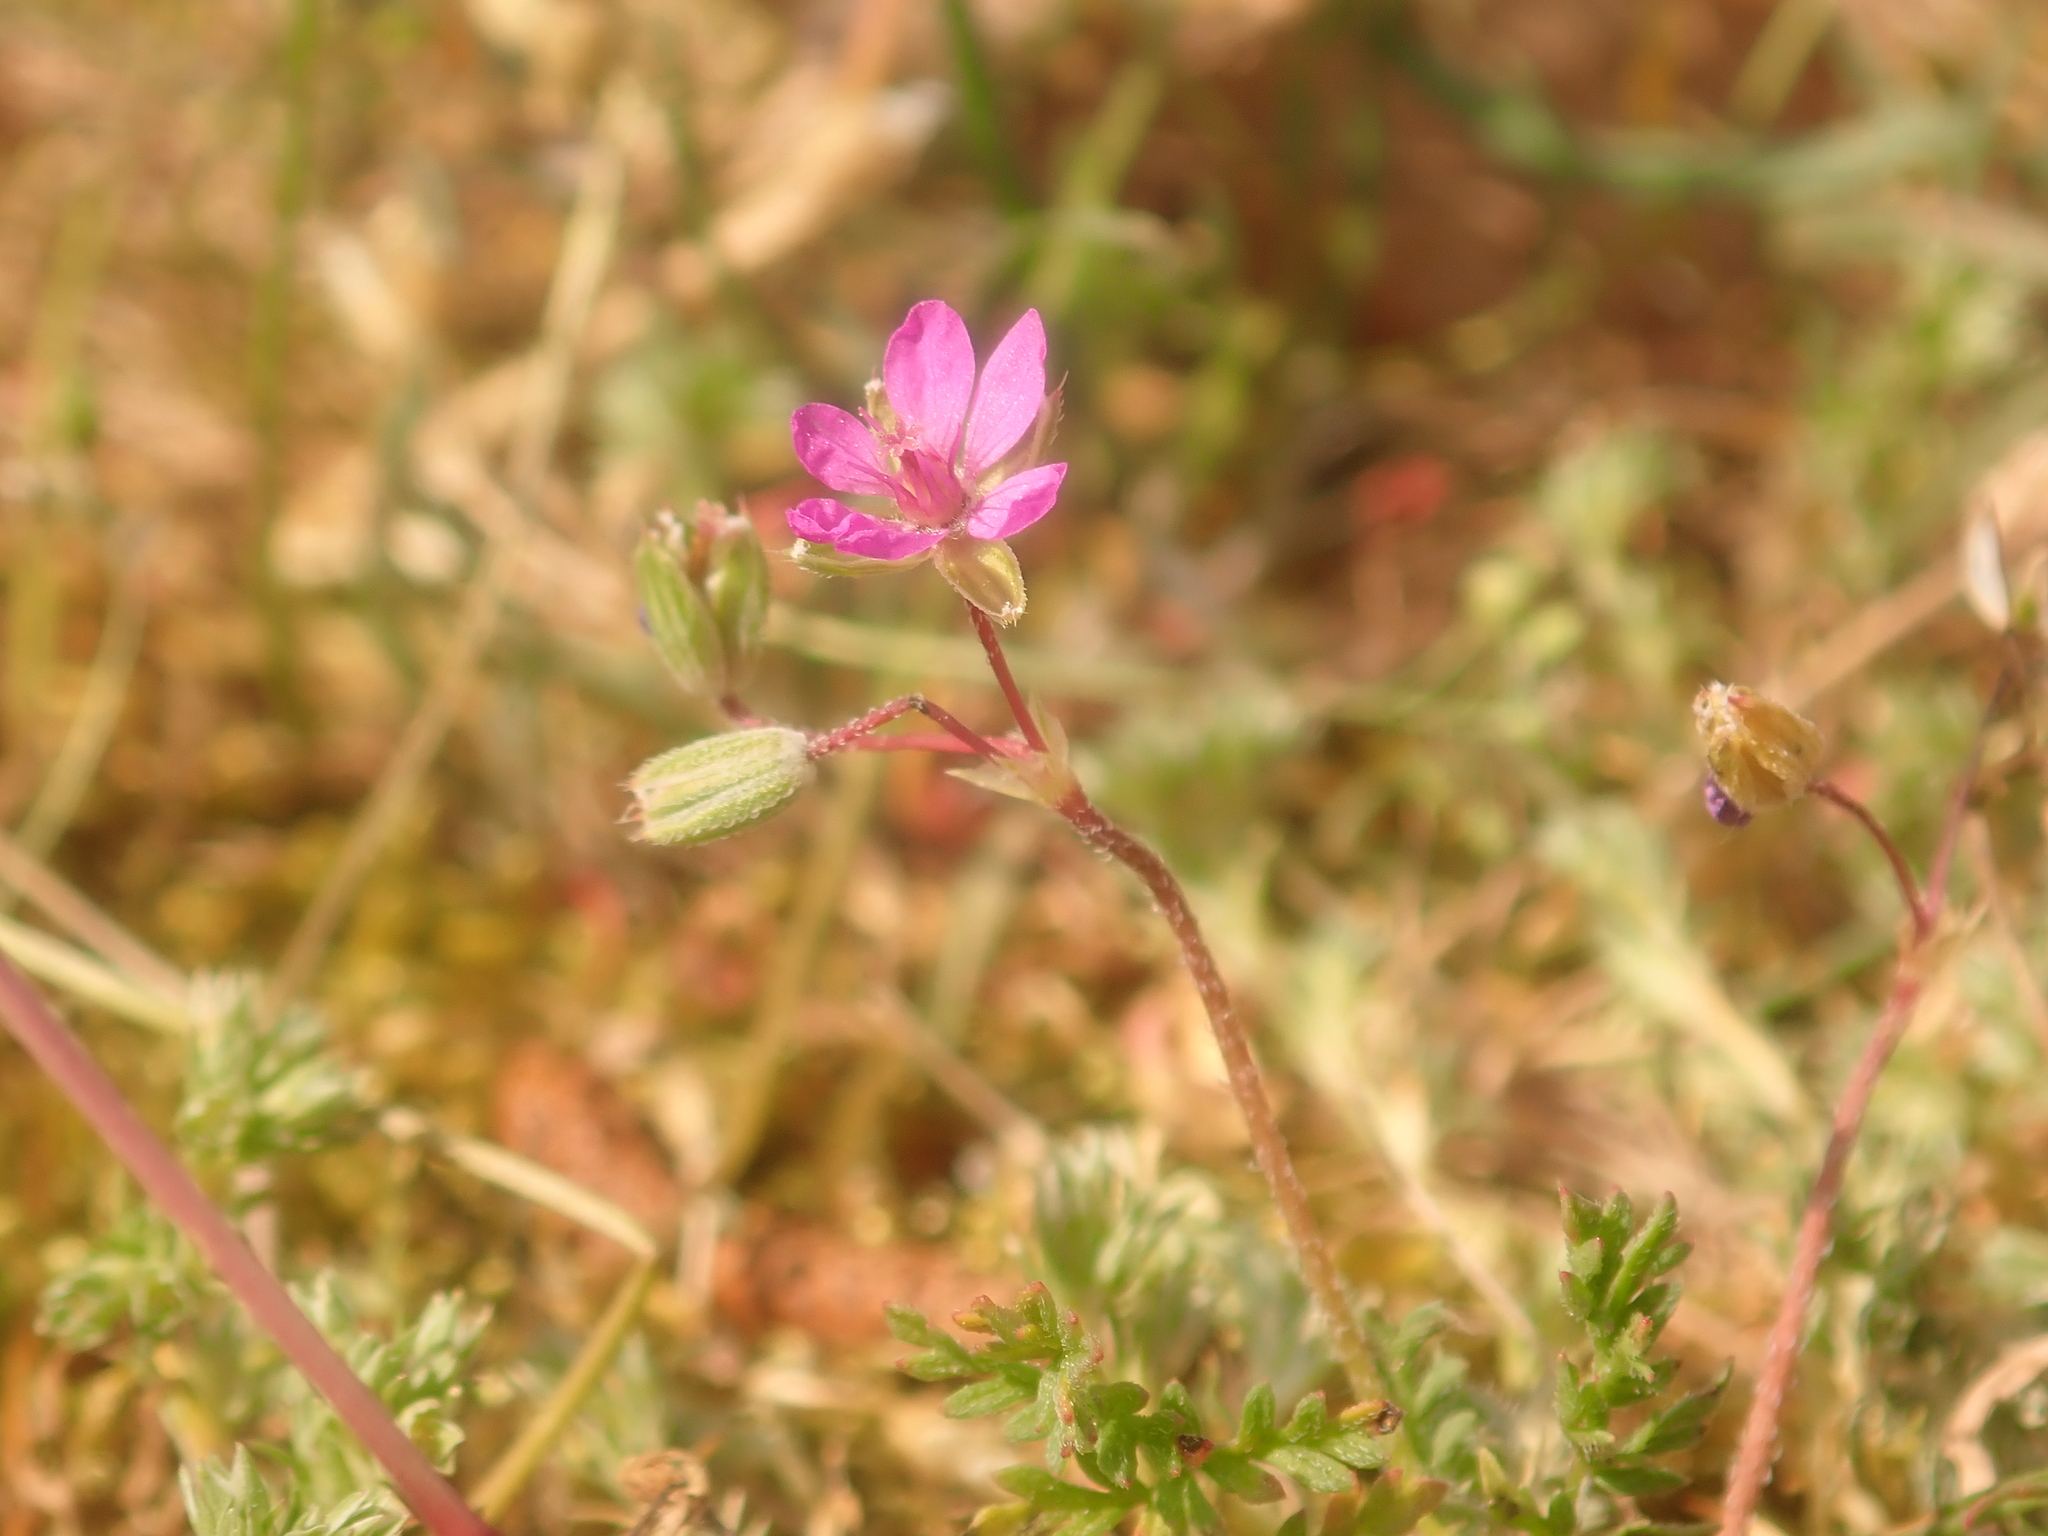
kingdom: Plantae
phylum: Tracheophyta
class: Magnoliopsida
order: Geraniales
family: Geraniaceae
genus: Erodium
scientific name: Erodium cicutarium
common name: Common stork's-bill
